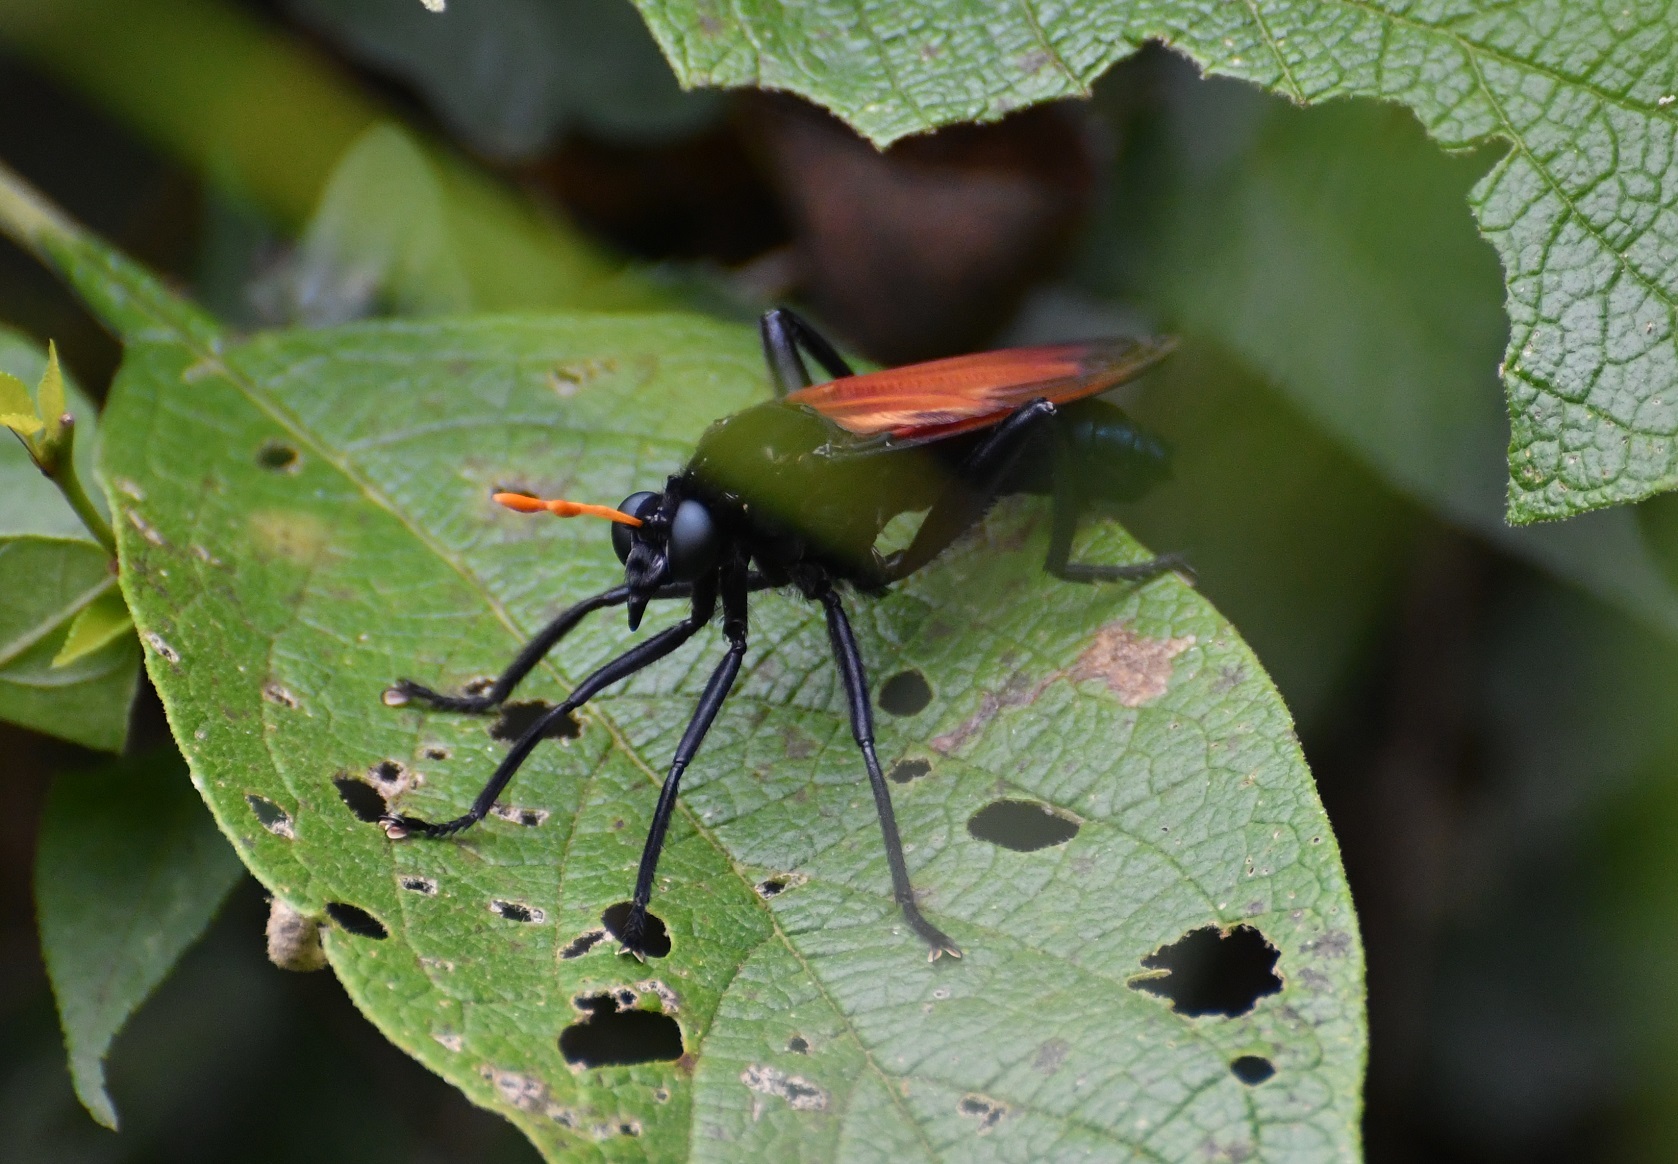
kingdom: Animalia
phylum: Arthropoda
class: Insecta
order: Diptera
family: Mydidae
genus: Mydas
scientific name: Mydas rubidapex
